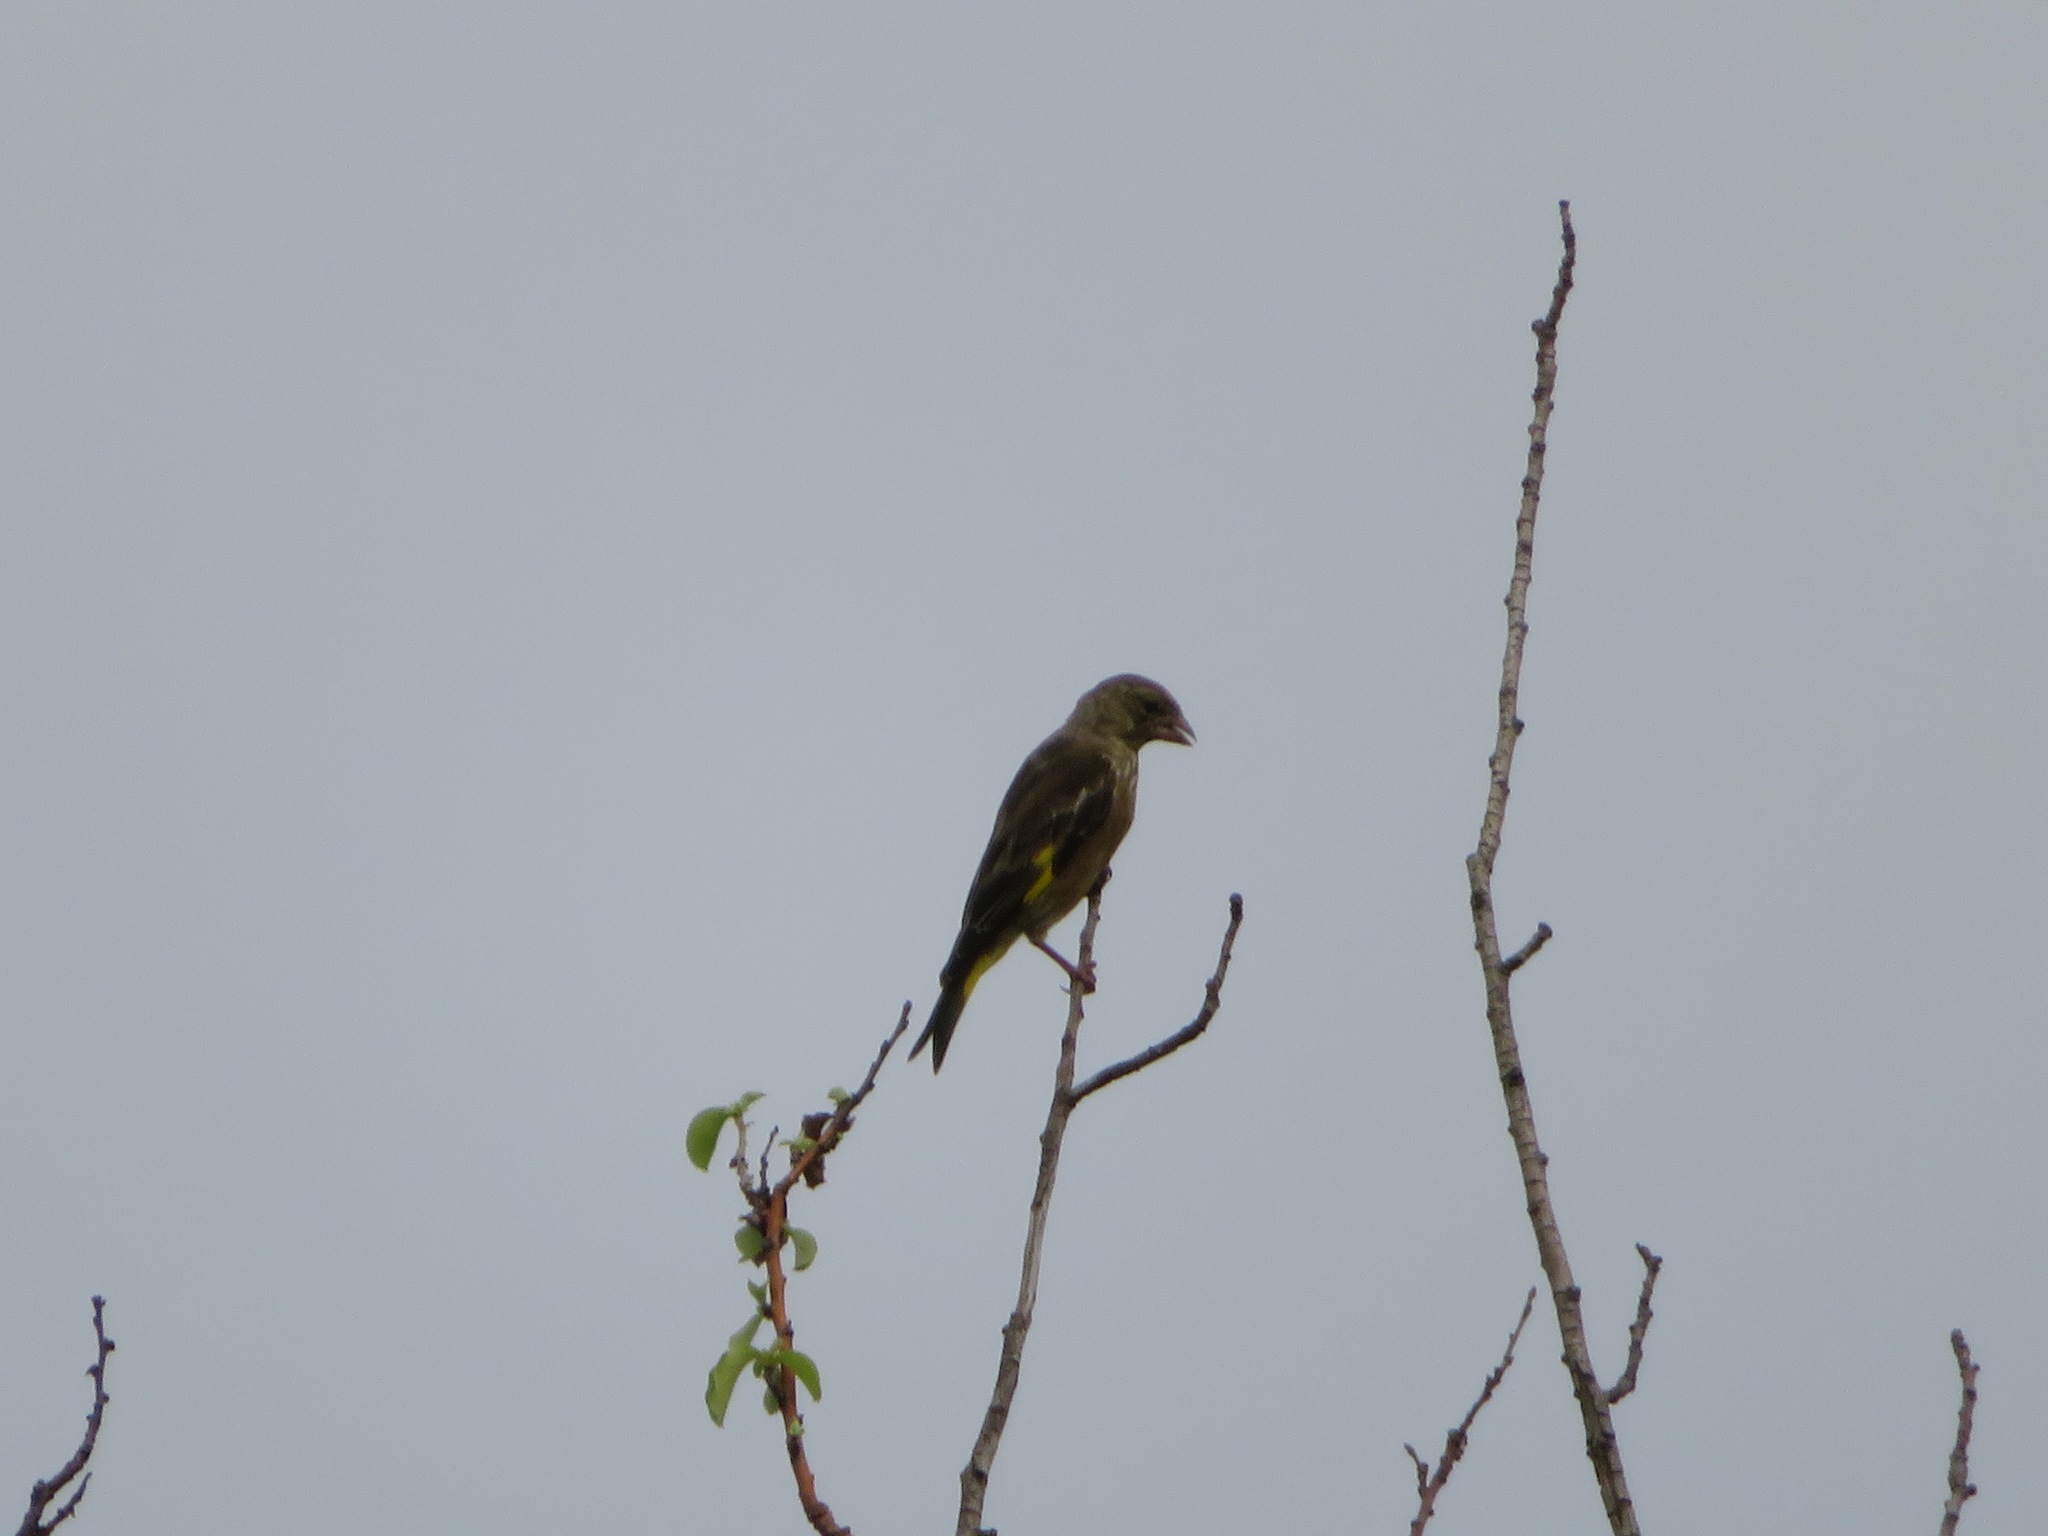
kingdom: Plantae
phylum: Tracheophyta
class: Liliopsida
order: Poales
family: Poaceae
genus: Chloris
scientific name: Chloris sinica
